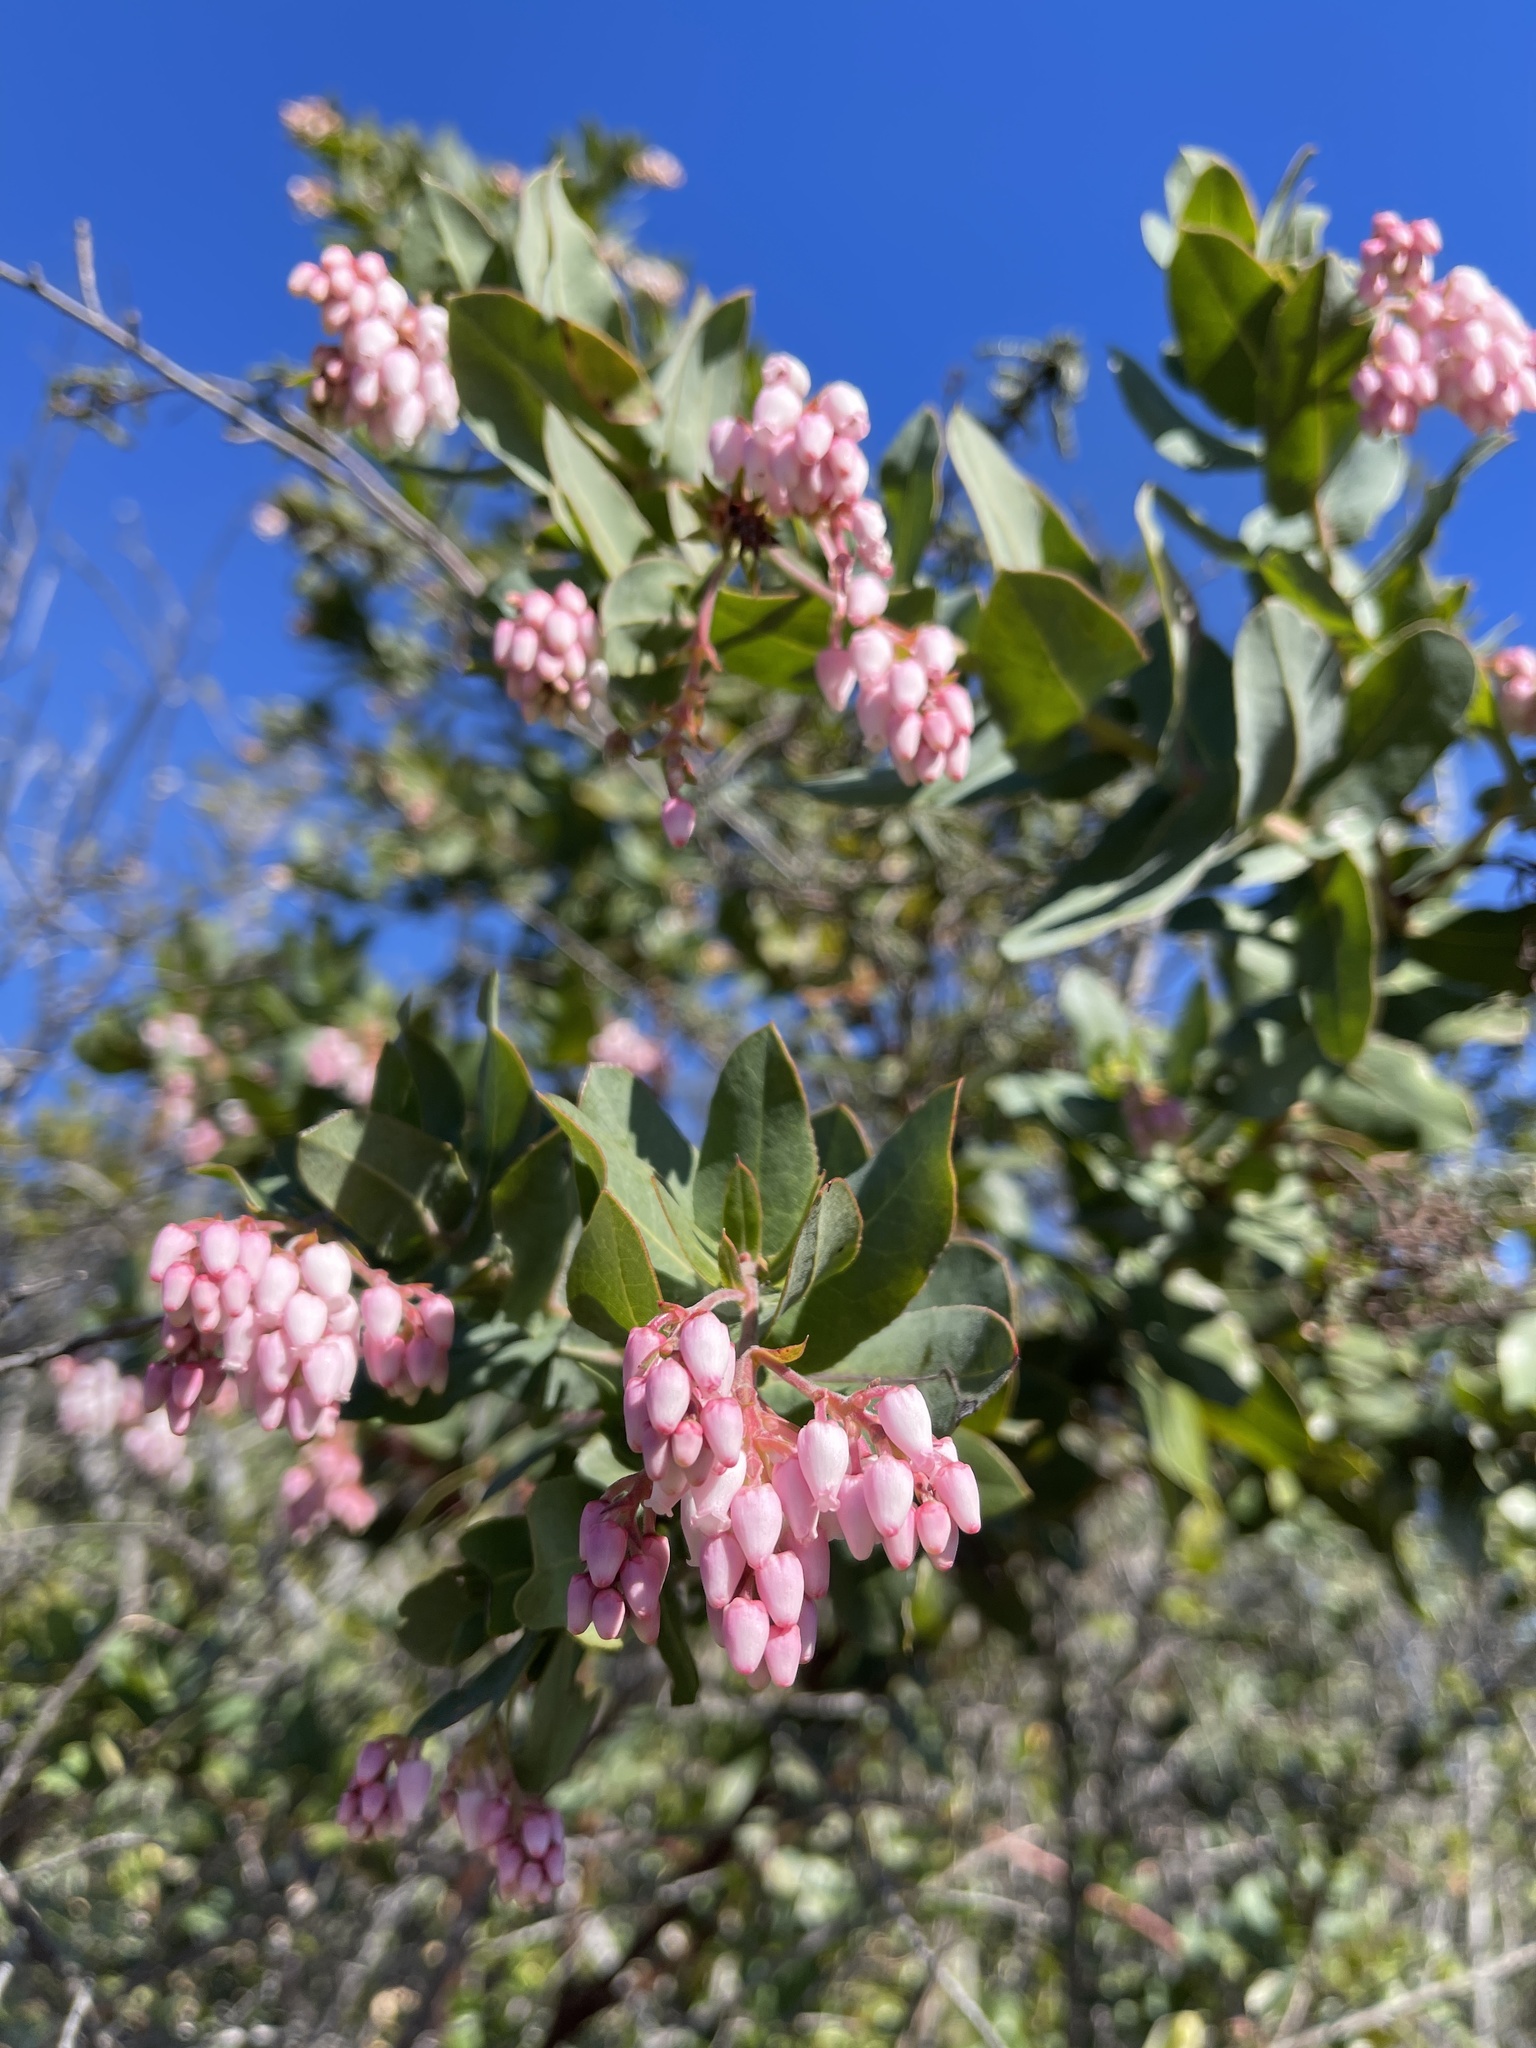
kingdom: Plantae
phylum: Tracheophyta
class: Magnoliopsida
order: Ericales
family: Ericaceae
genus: Arctostaphylos
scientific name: Arctostaphylos andersonii
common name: Santa cruz manzanita
